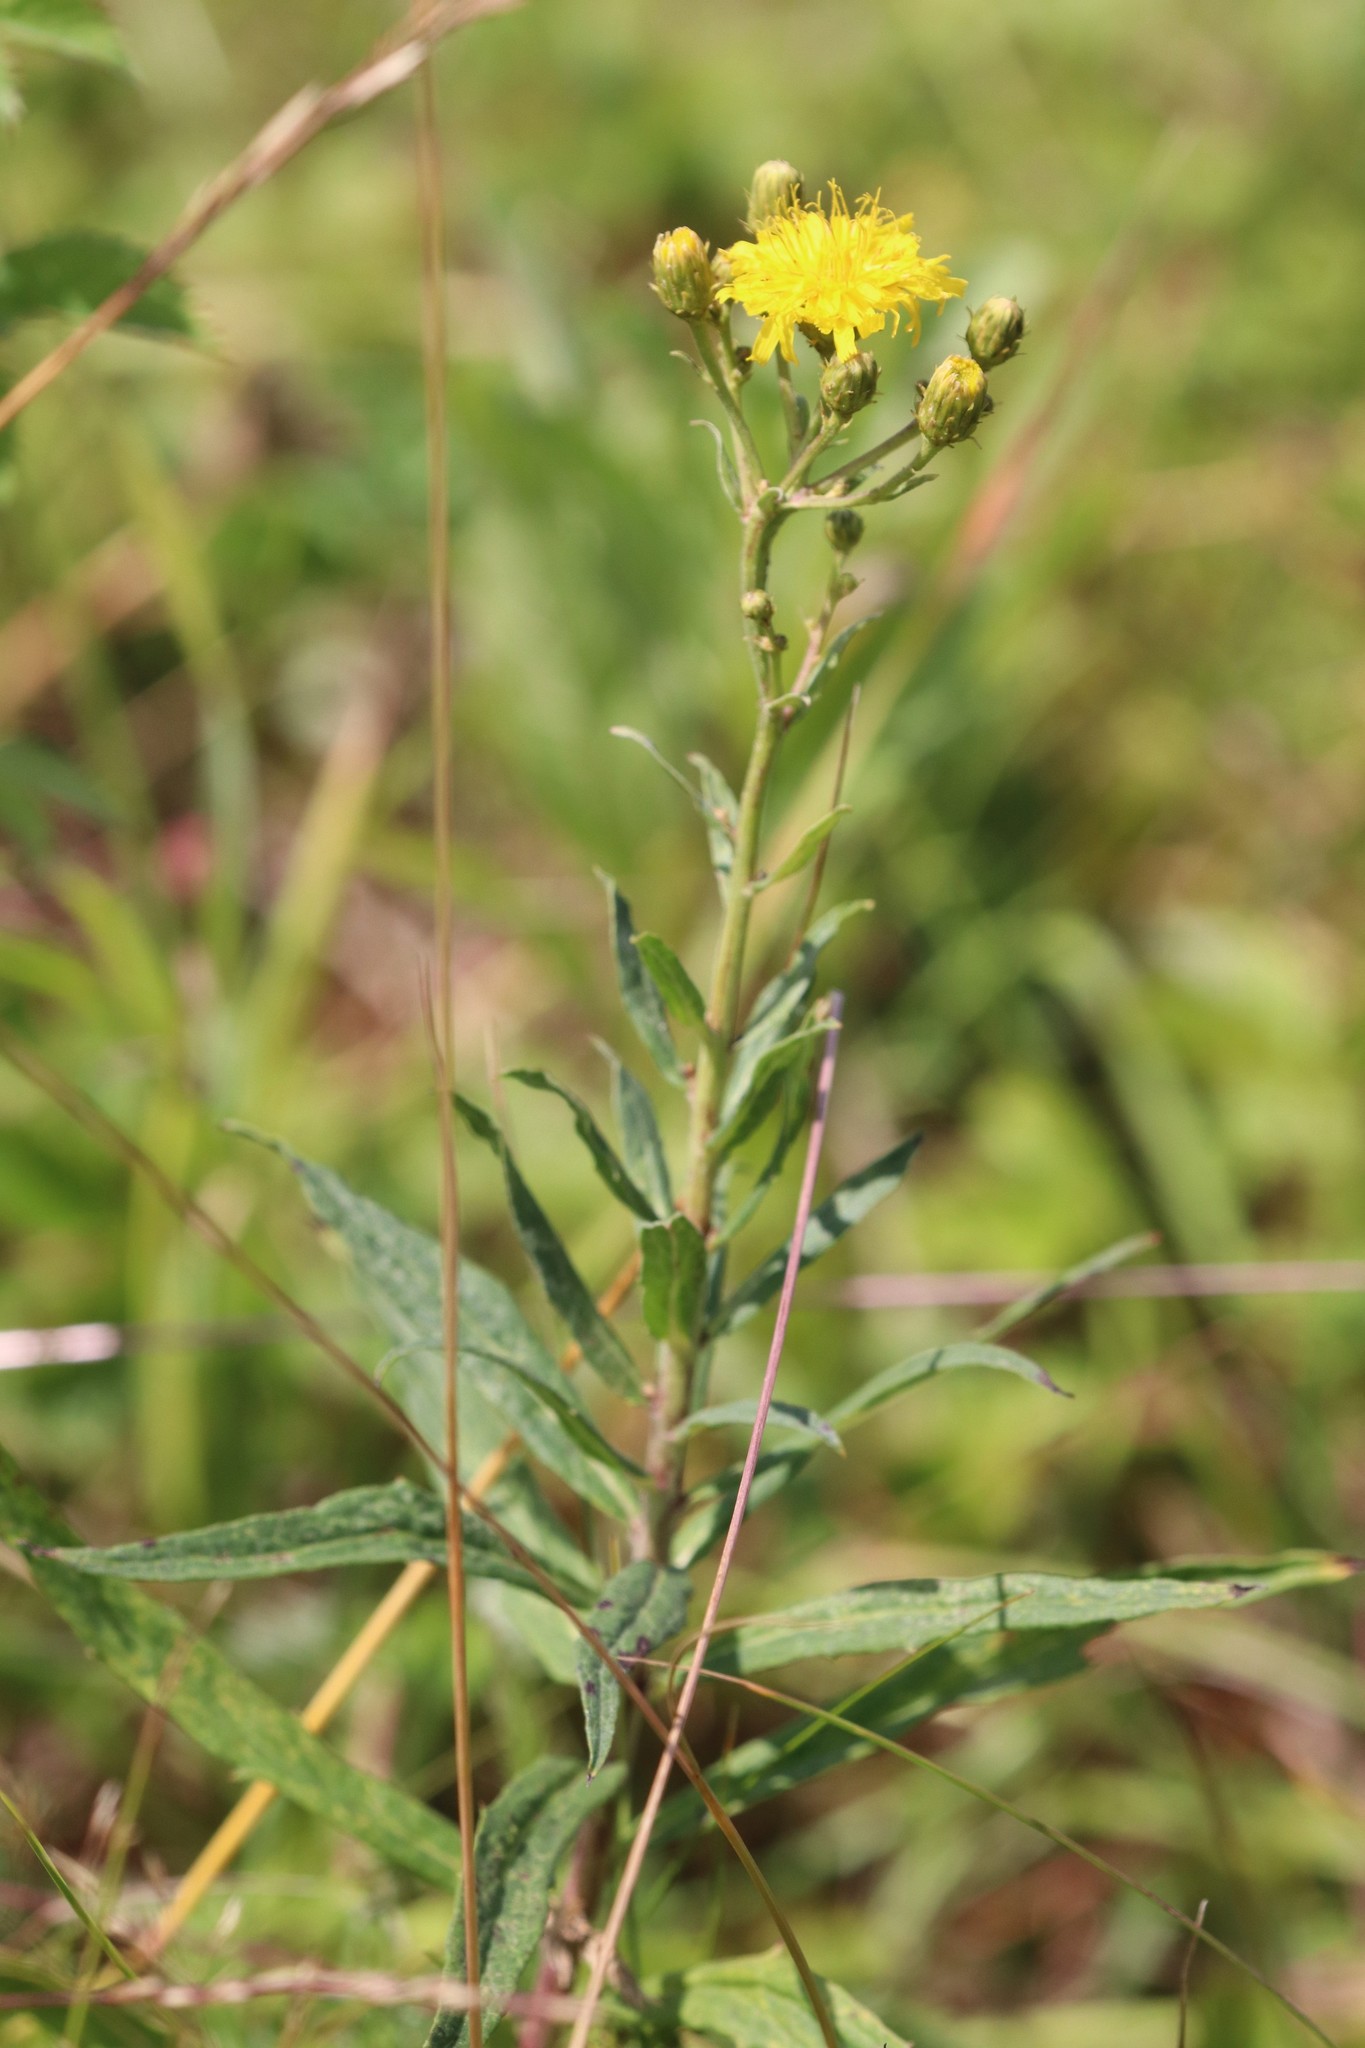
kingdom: Plantae
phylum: Tracheophyta
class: Magnoliopsida
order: Asterales
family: Asteraceae
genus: Hieracium
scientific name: Hieracium umbellatum
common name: Northern hawkweed
